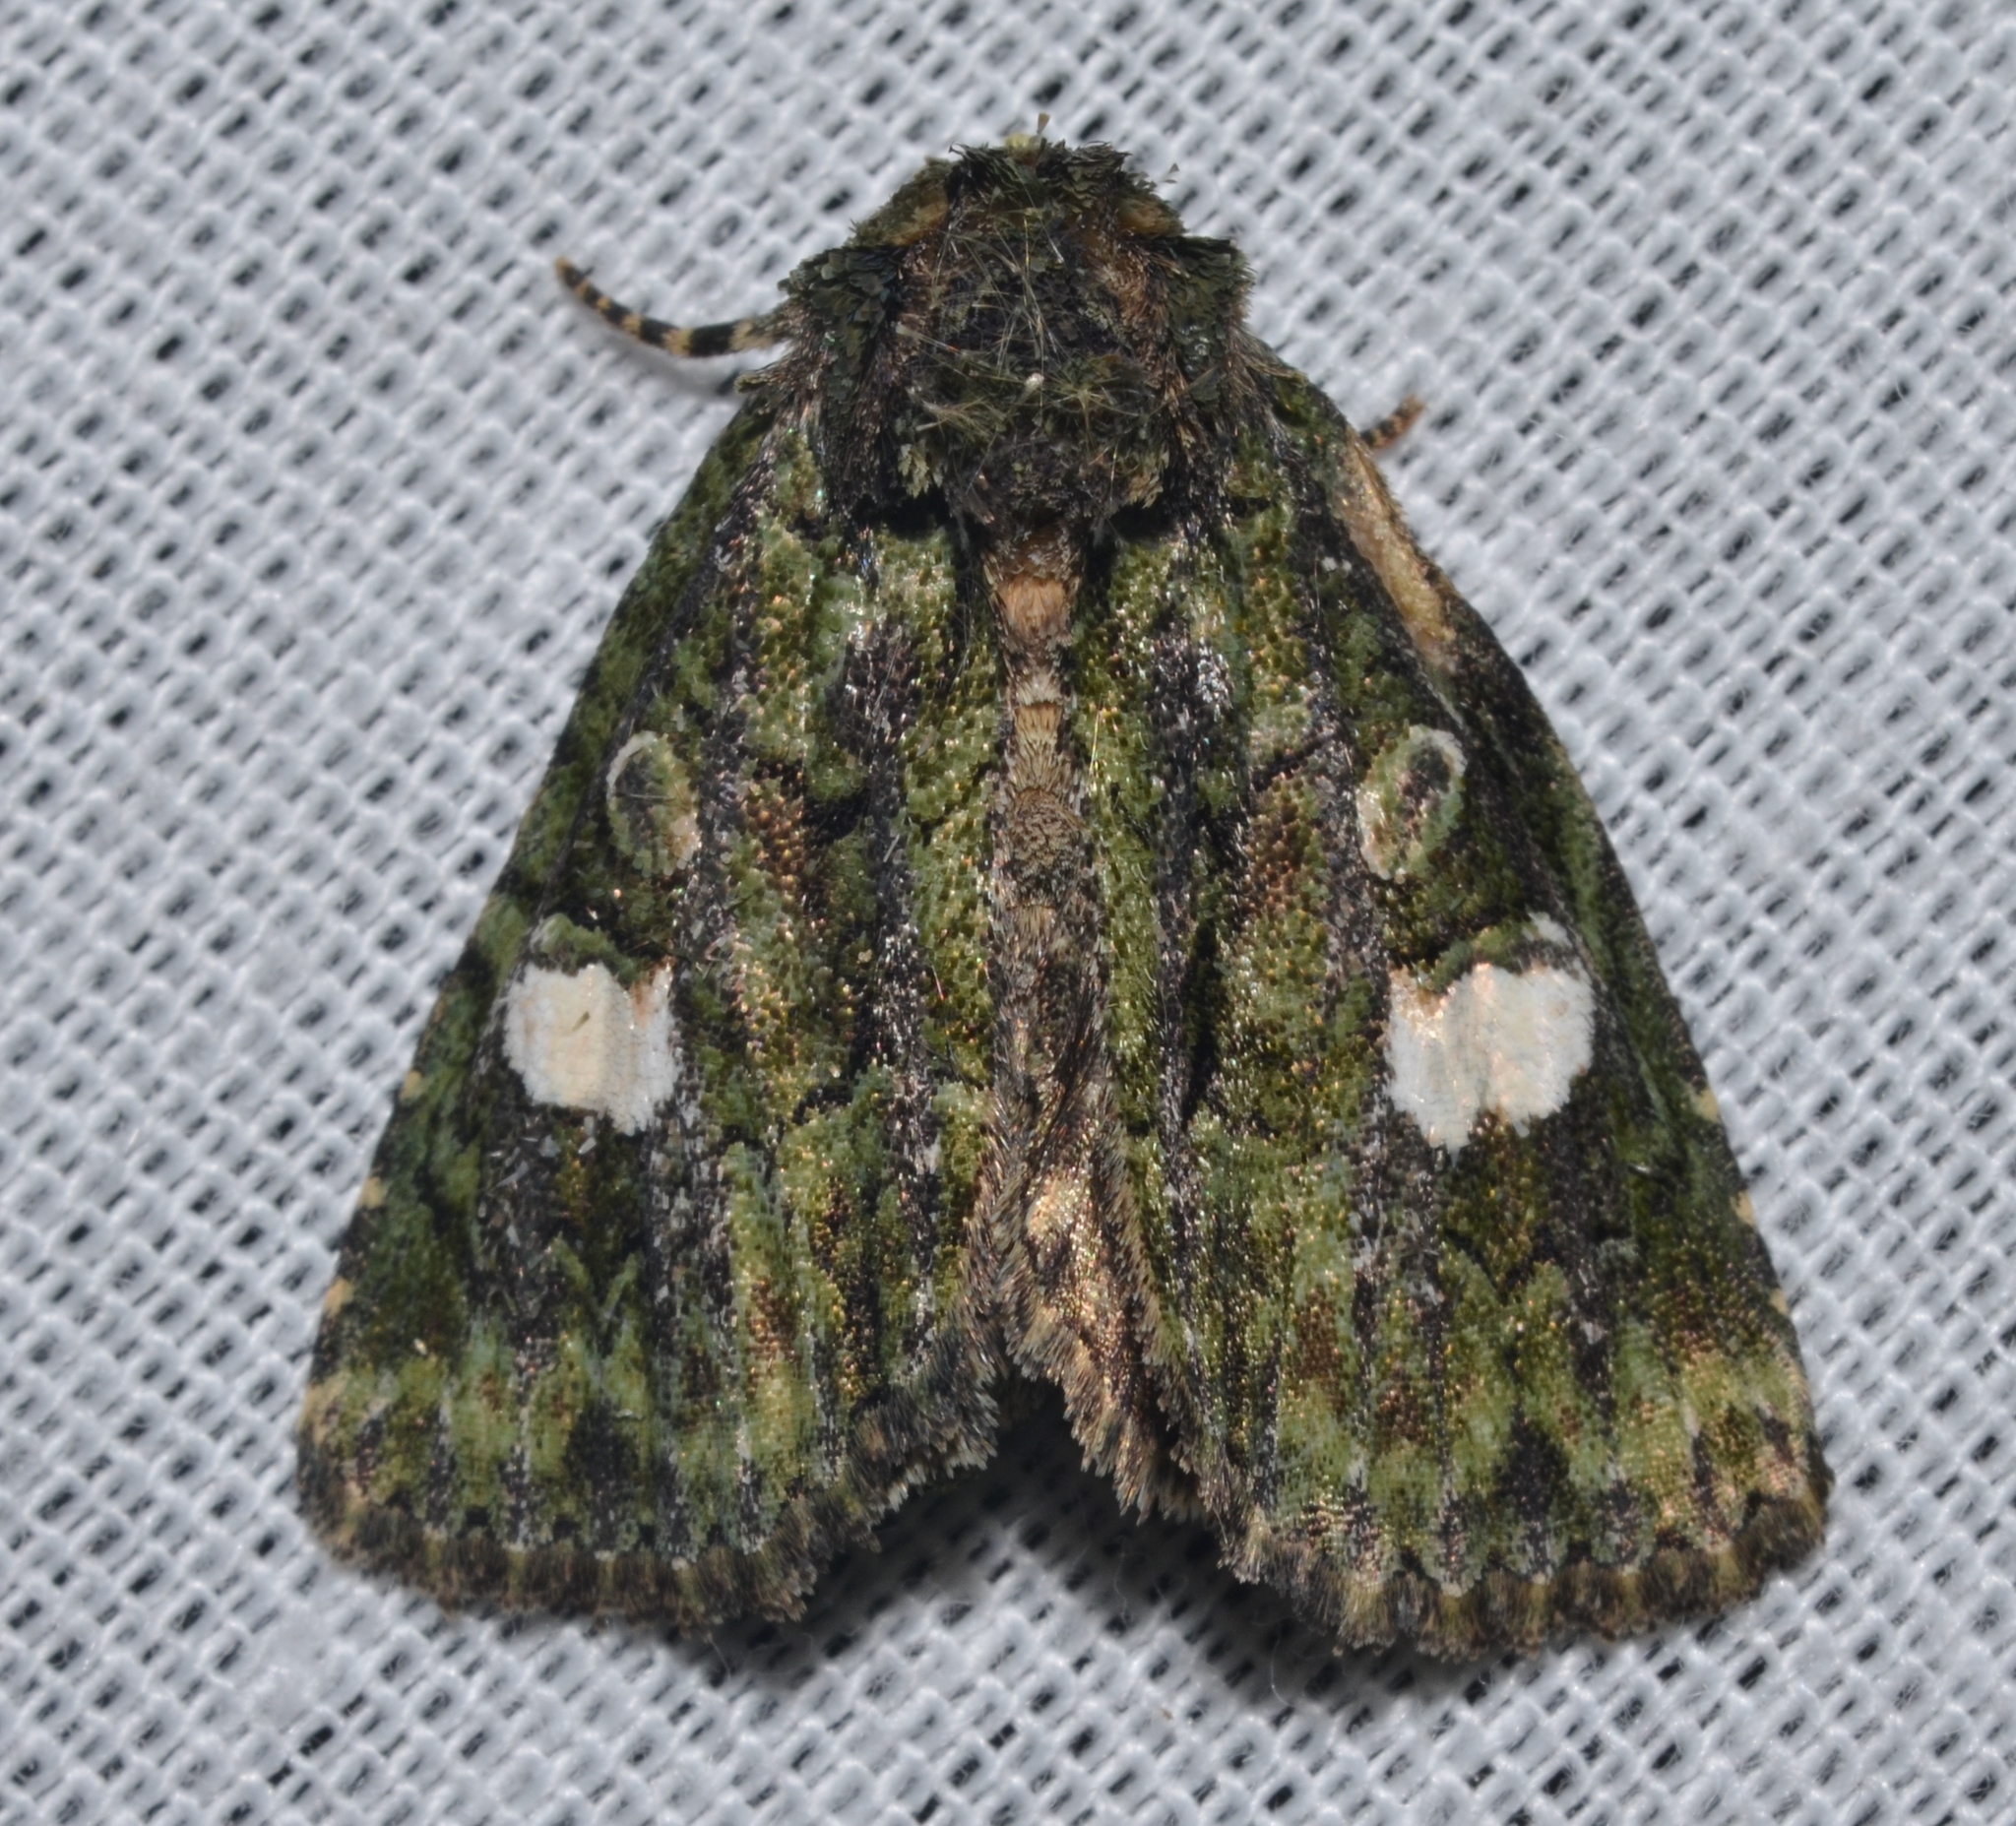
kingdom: Animalia
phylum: Arthropoda
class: Insecta
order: Lepidoptera
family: Noctuidae
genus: Phosphila
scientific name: Phosphila miselioides
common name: Spotted phosphila moth
